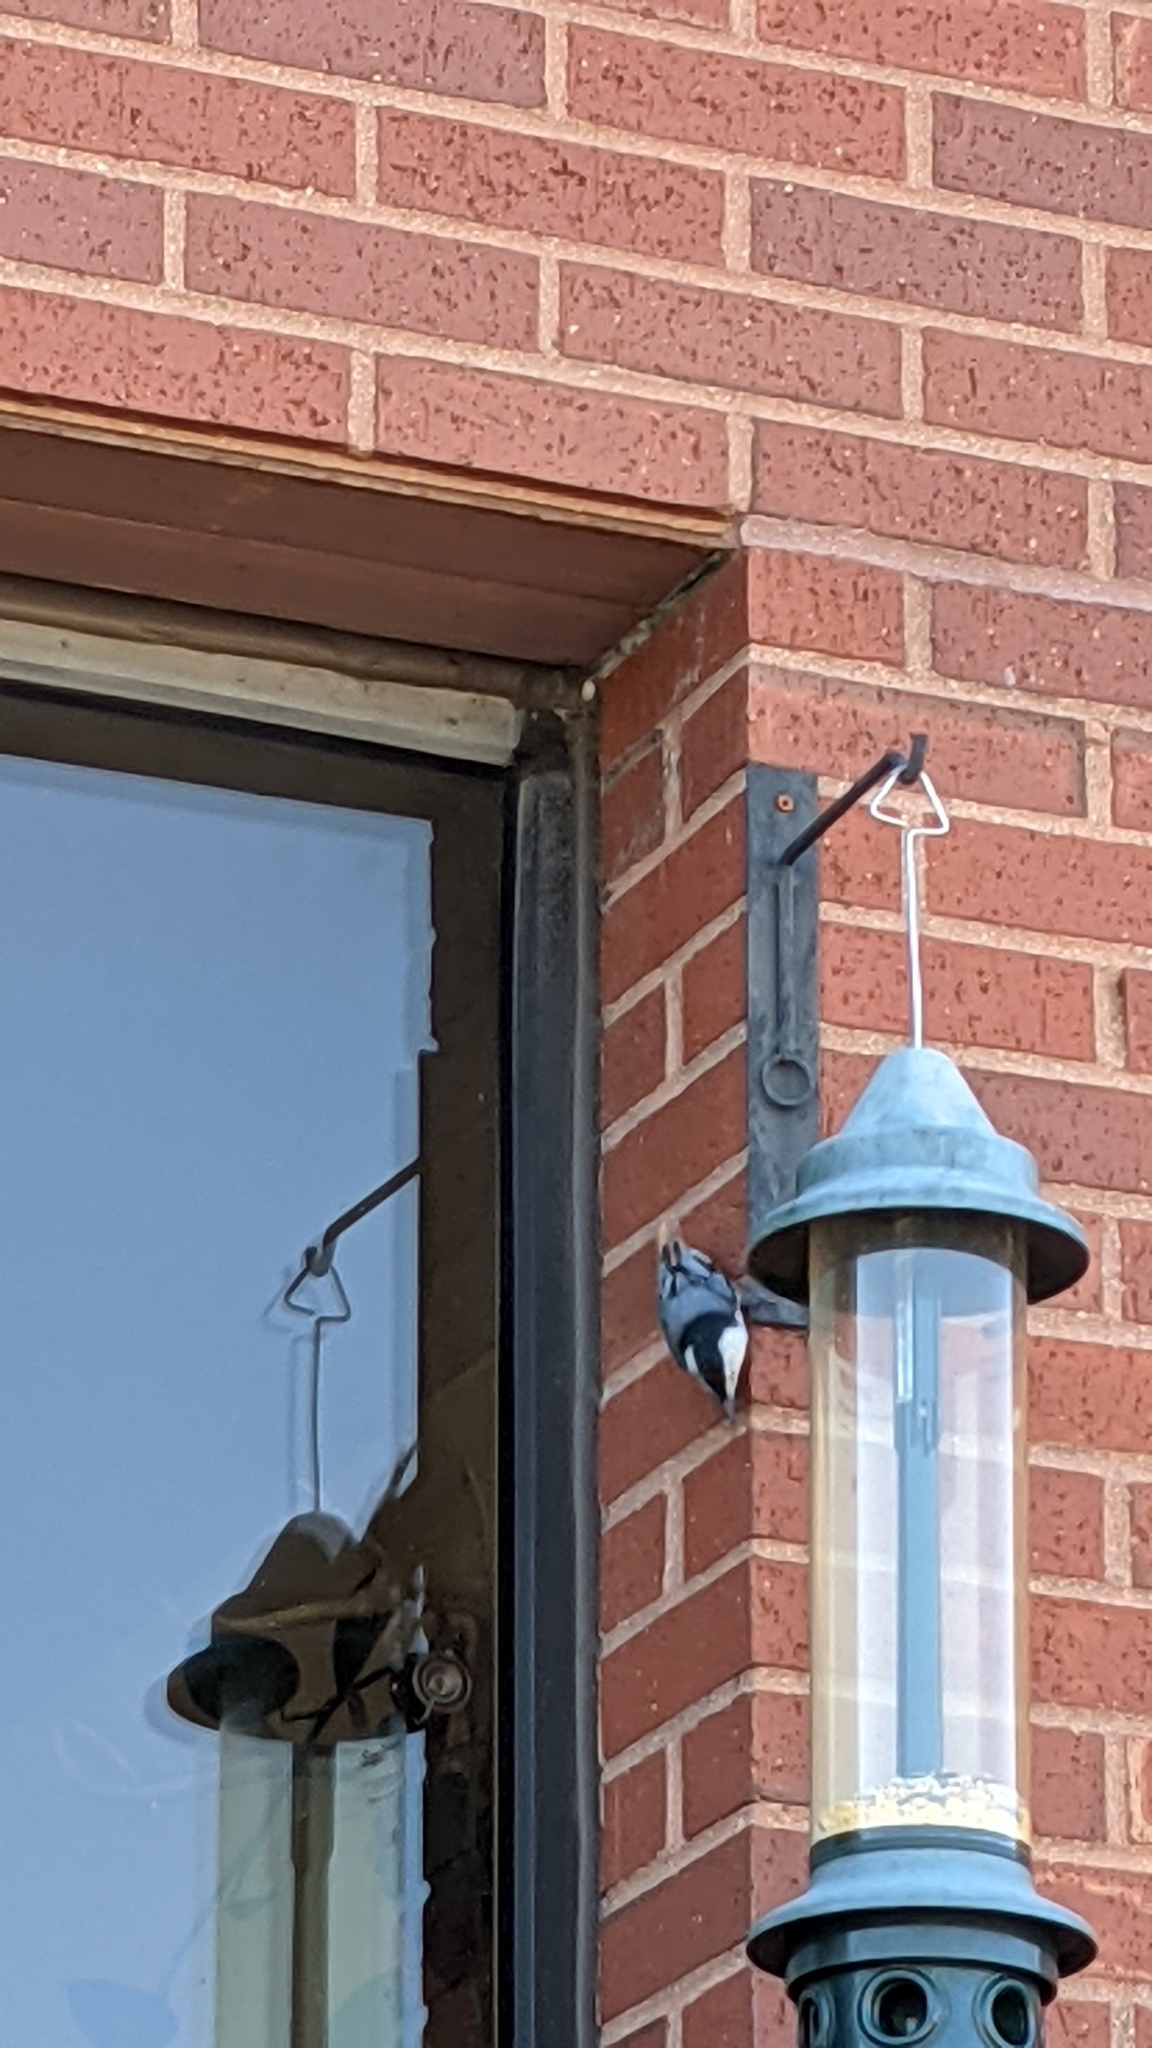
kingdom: Animalia
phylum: Chordata
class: Aves
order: Passeriformes
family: Sittidae
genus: Sitta
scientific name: Sitta carolinensis
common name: White-breasted nuthatch
